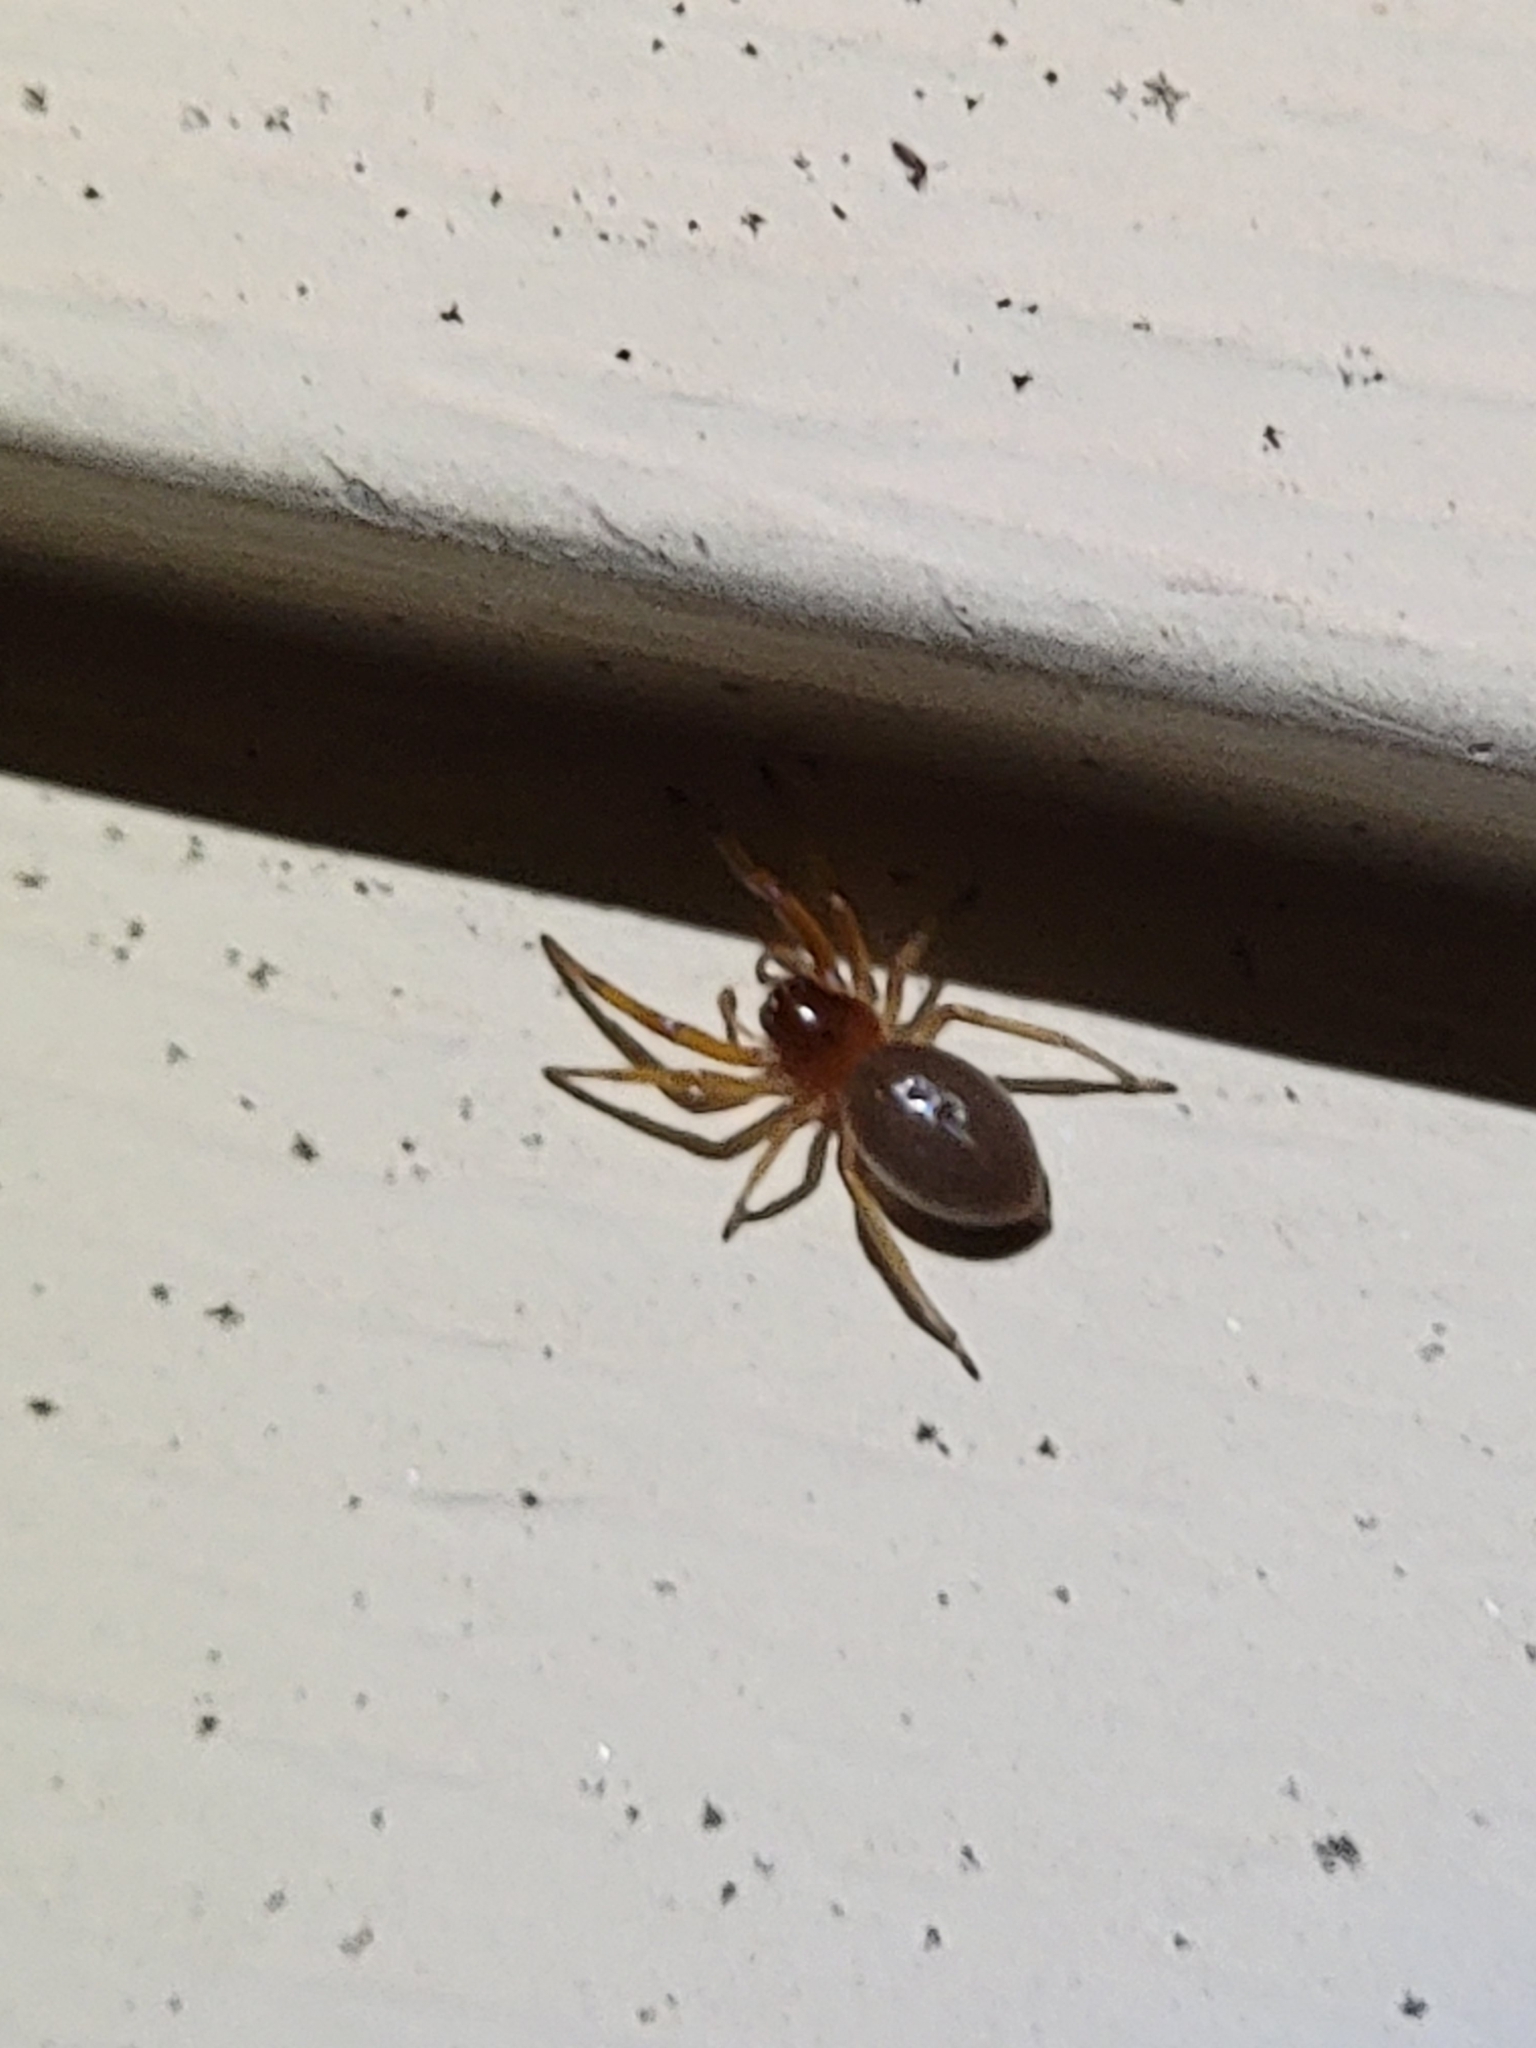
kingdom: Animalia
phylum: Arthropoda
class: Arachnida
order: Araneae
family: Trachelidae
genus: Trachelas
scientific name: Trachelas tranquillus
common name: Broad-faced sac spider
